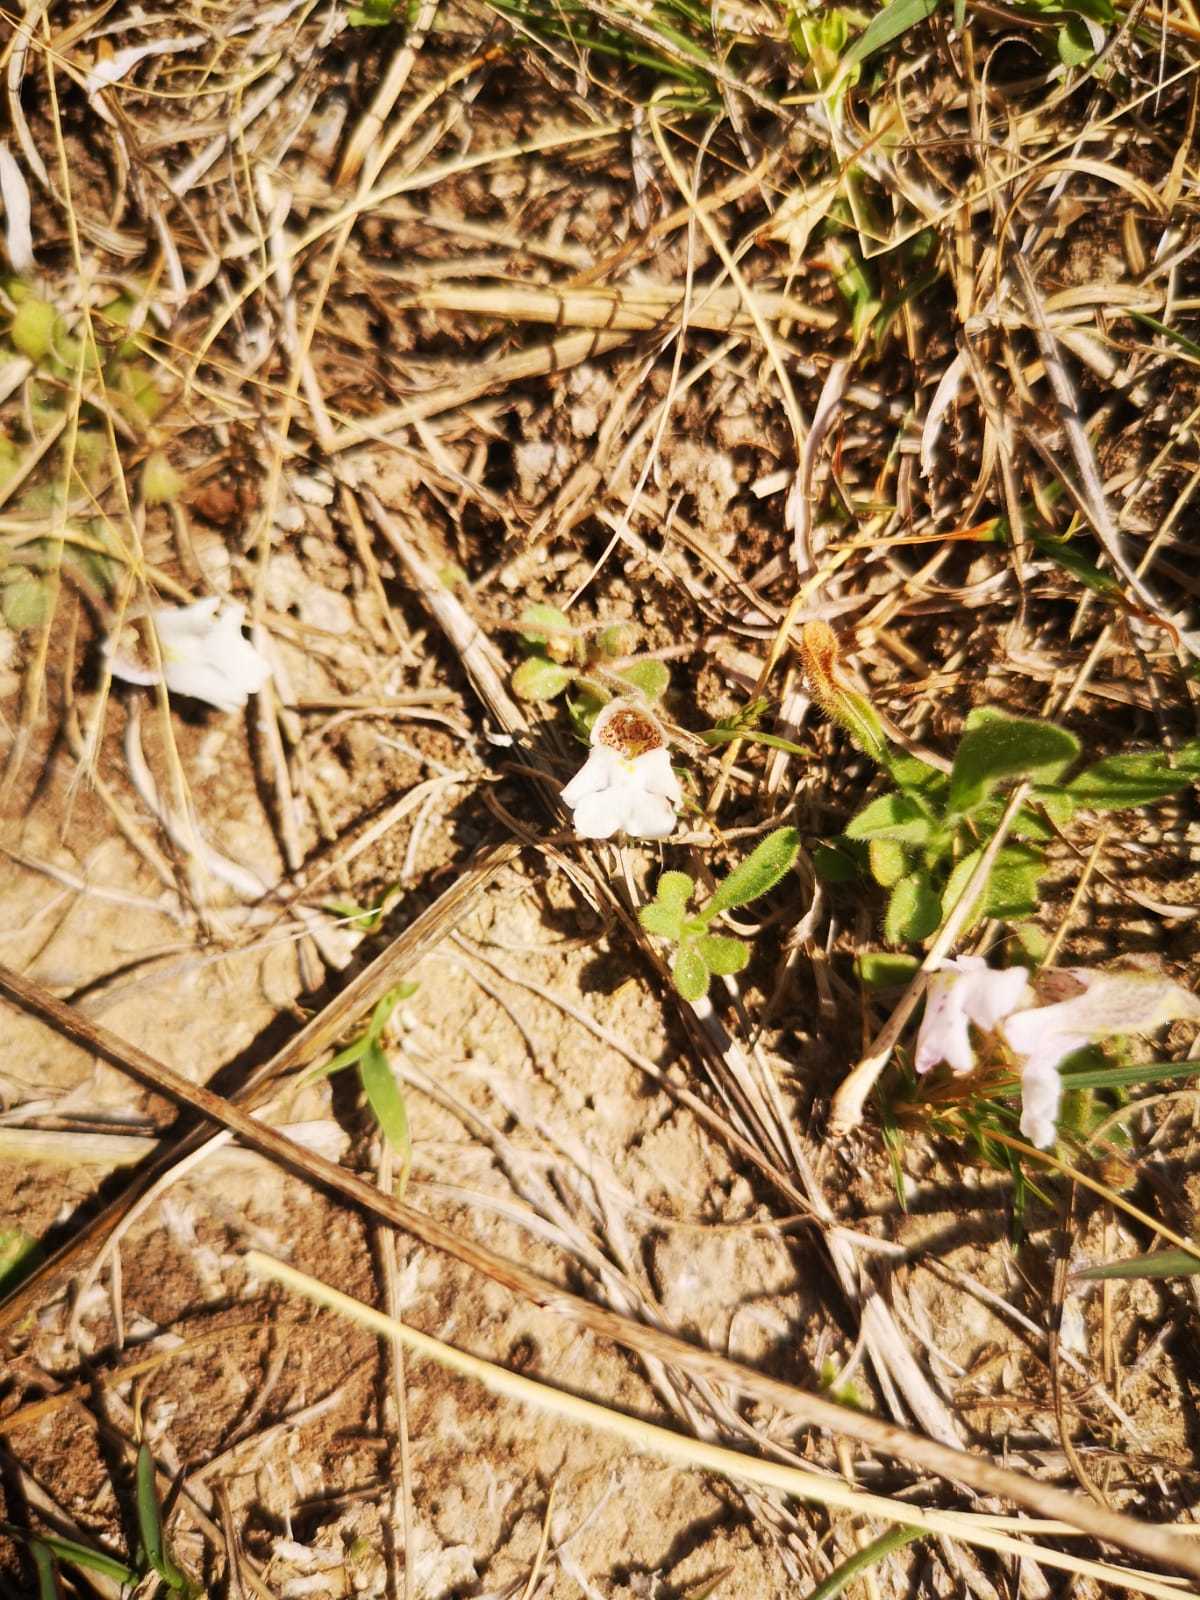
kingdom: Plantae
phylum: Tracheophyta
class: Magnoliopsida
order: Lamiales
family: Scrophulariaceae
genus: Diclis
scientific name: Diclis petiolaris
